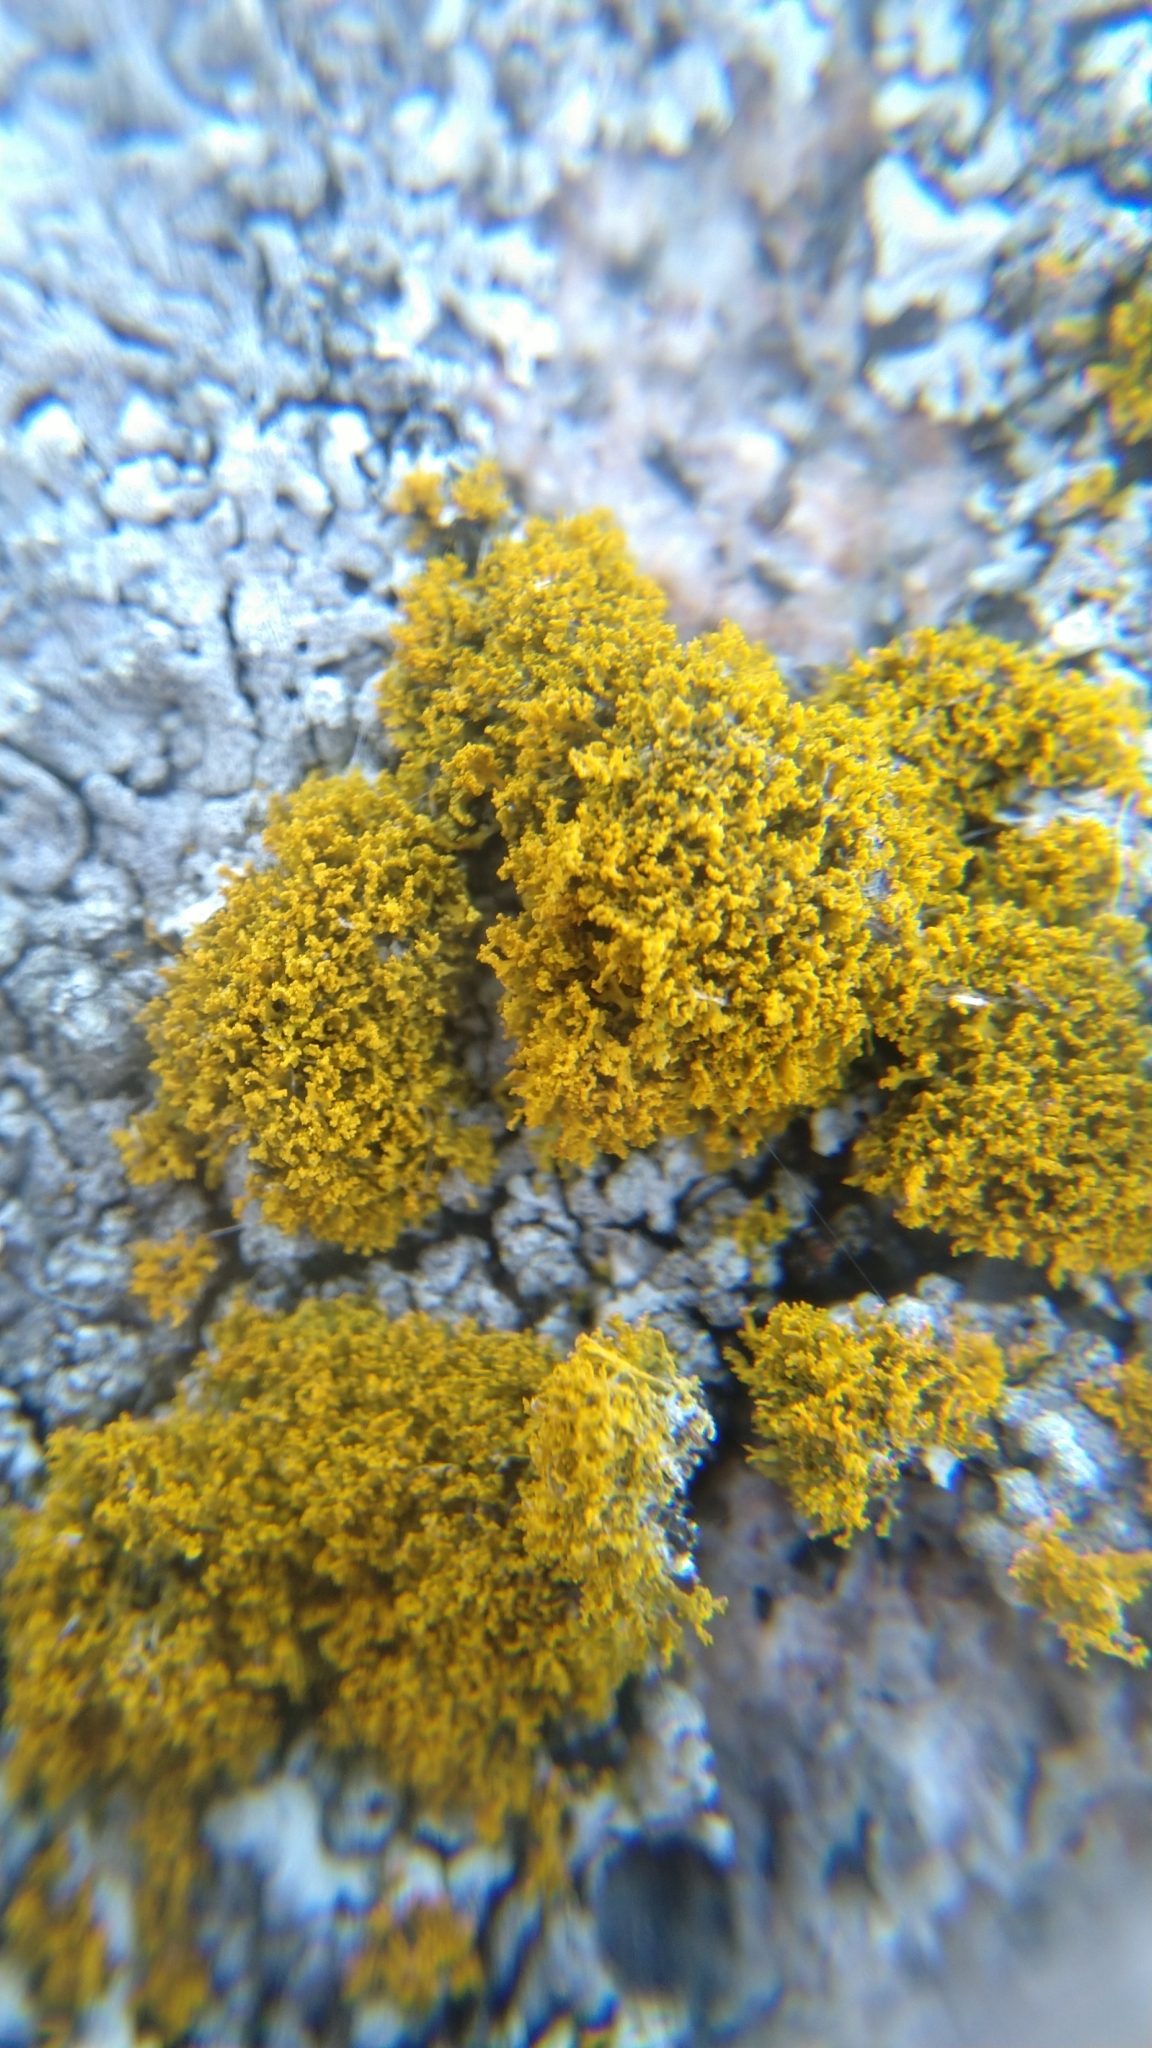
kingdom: Fungi
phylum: Ascomycota
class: Lecanoromycetes
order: Teloschistales
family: Teloschistaceae
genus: Polycauliona
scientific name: Polycauliona candelaria
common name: Shrubby sunburst lichen
